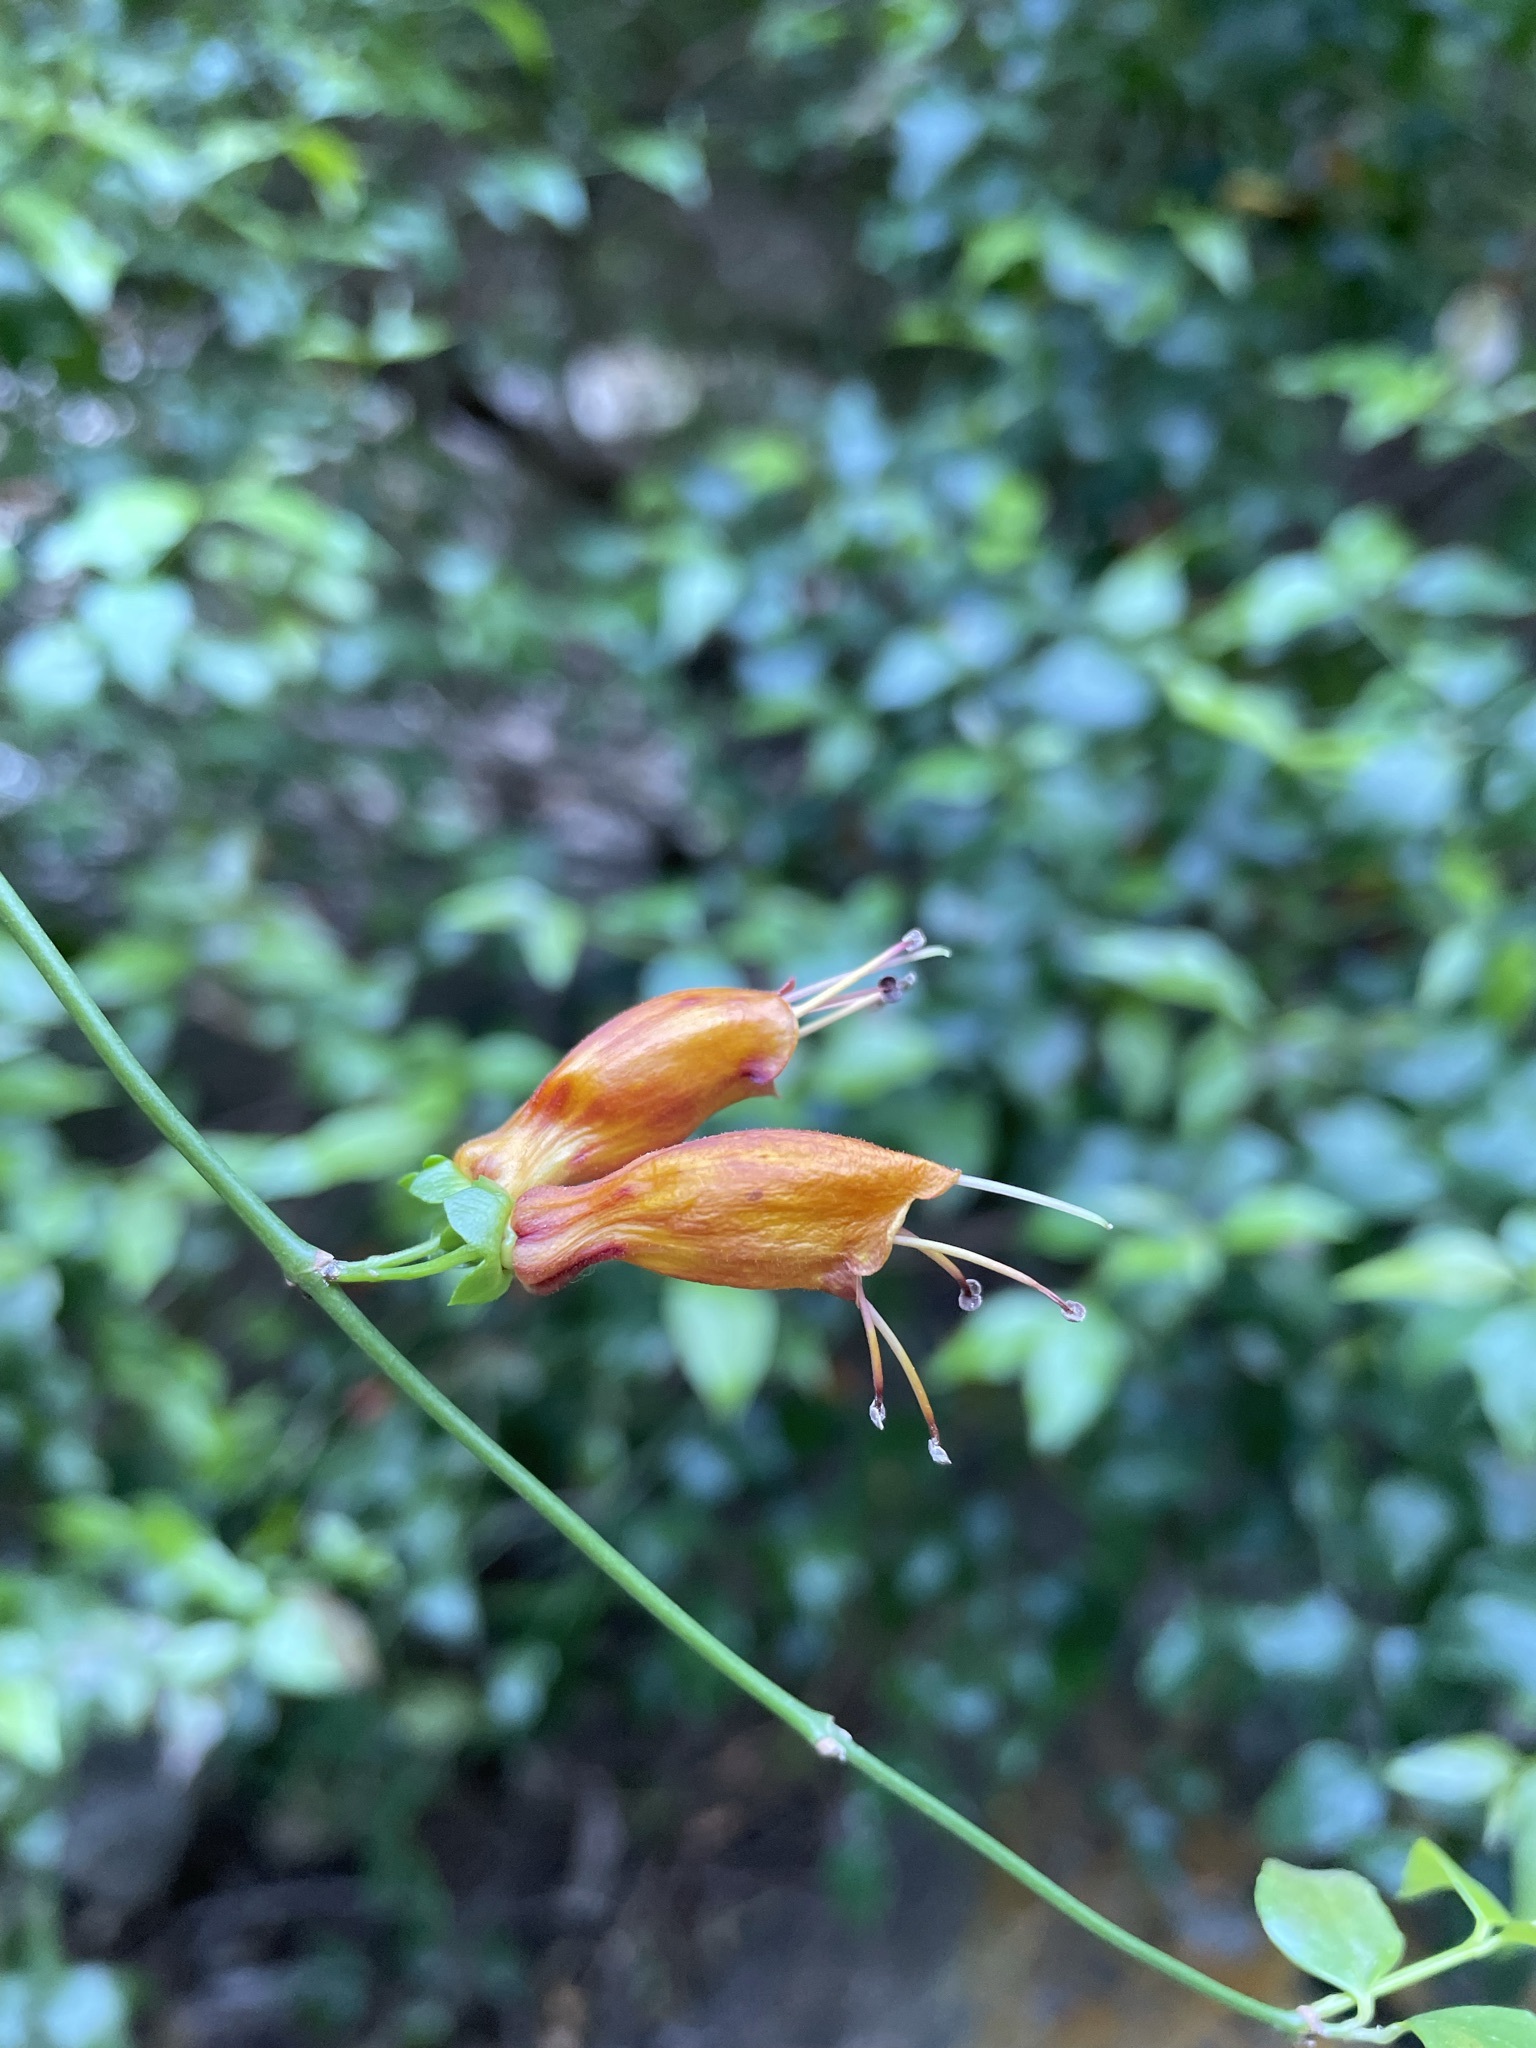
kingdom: Plantae
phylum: Tracheophyta
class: Magnoliopsida
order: Lamiales
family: Stilbaceae
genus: Halleria
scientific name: Halleria lucida
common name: Tree fuschia
